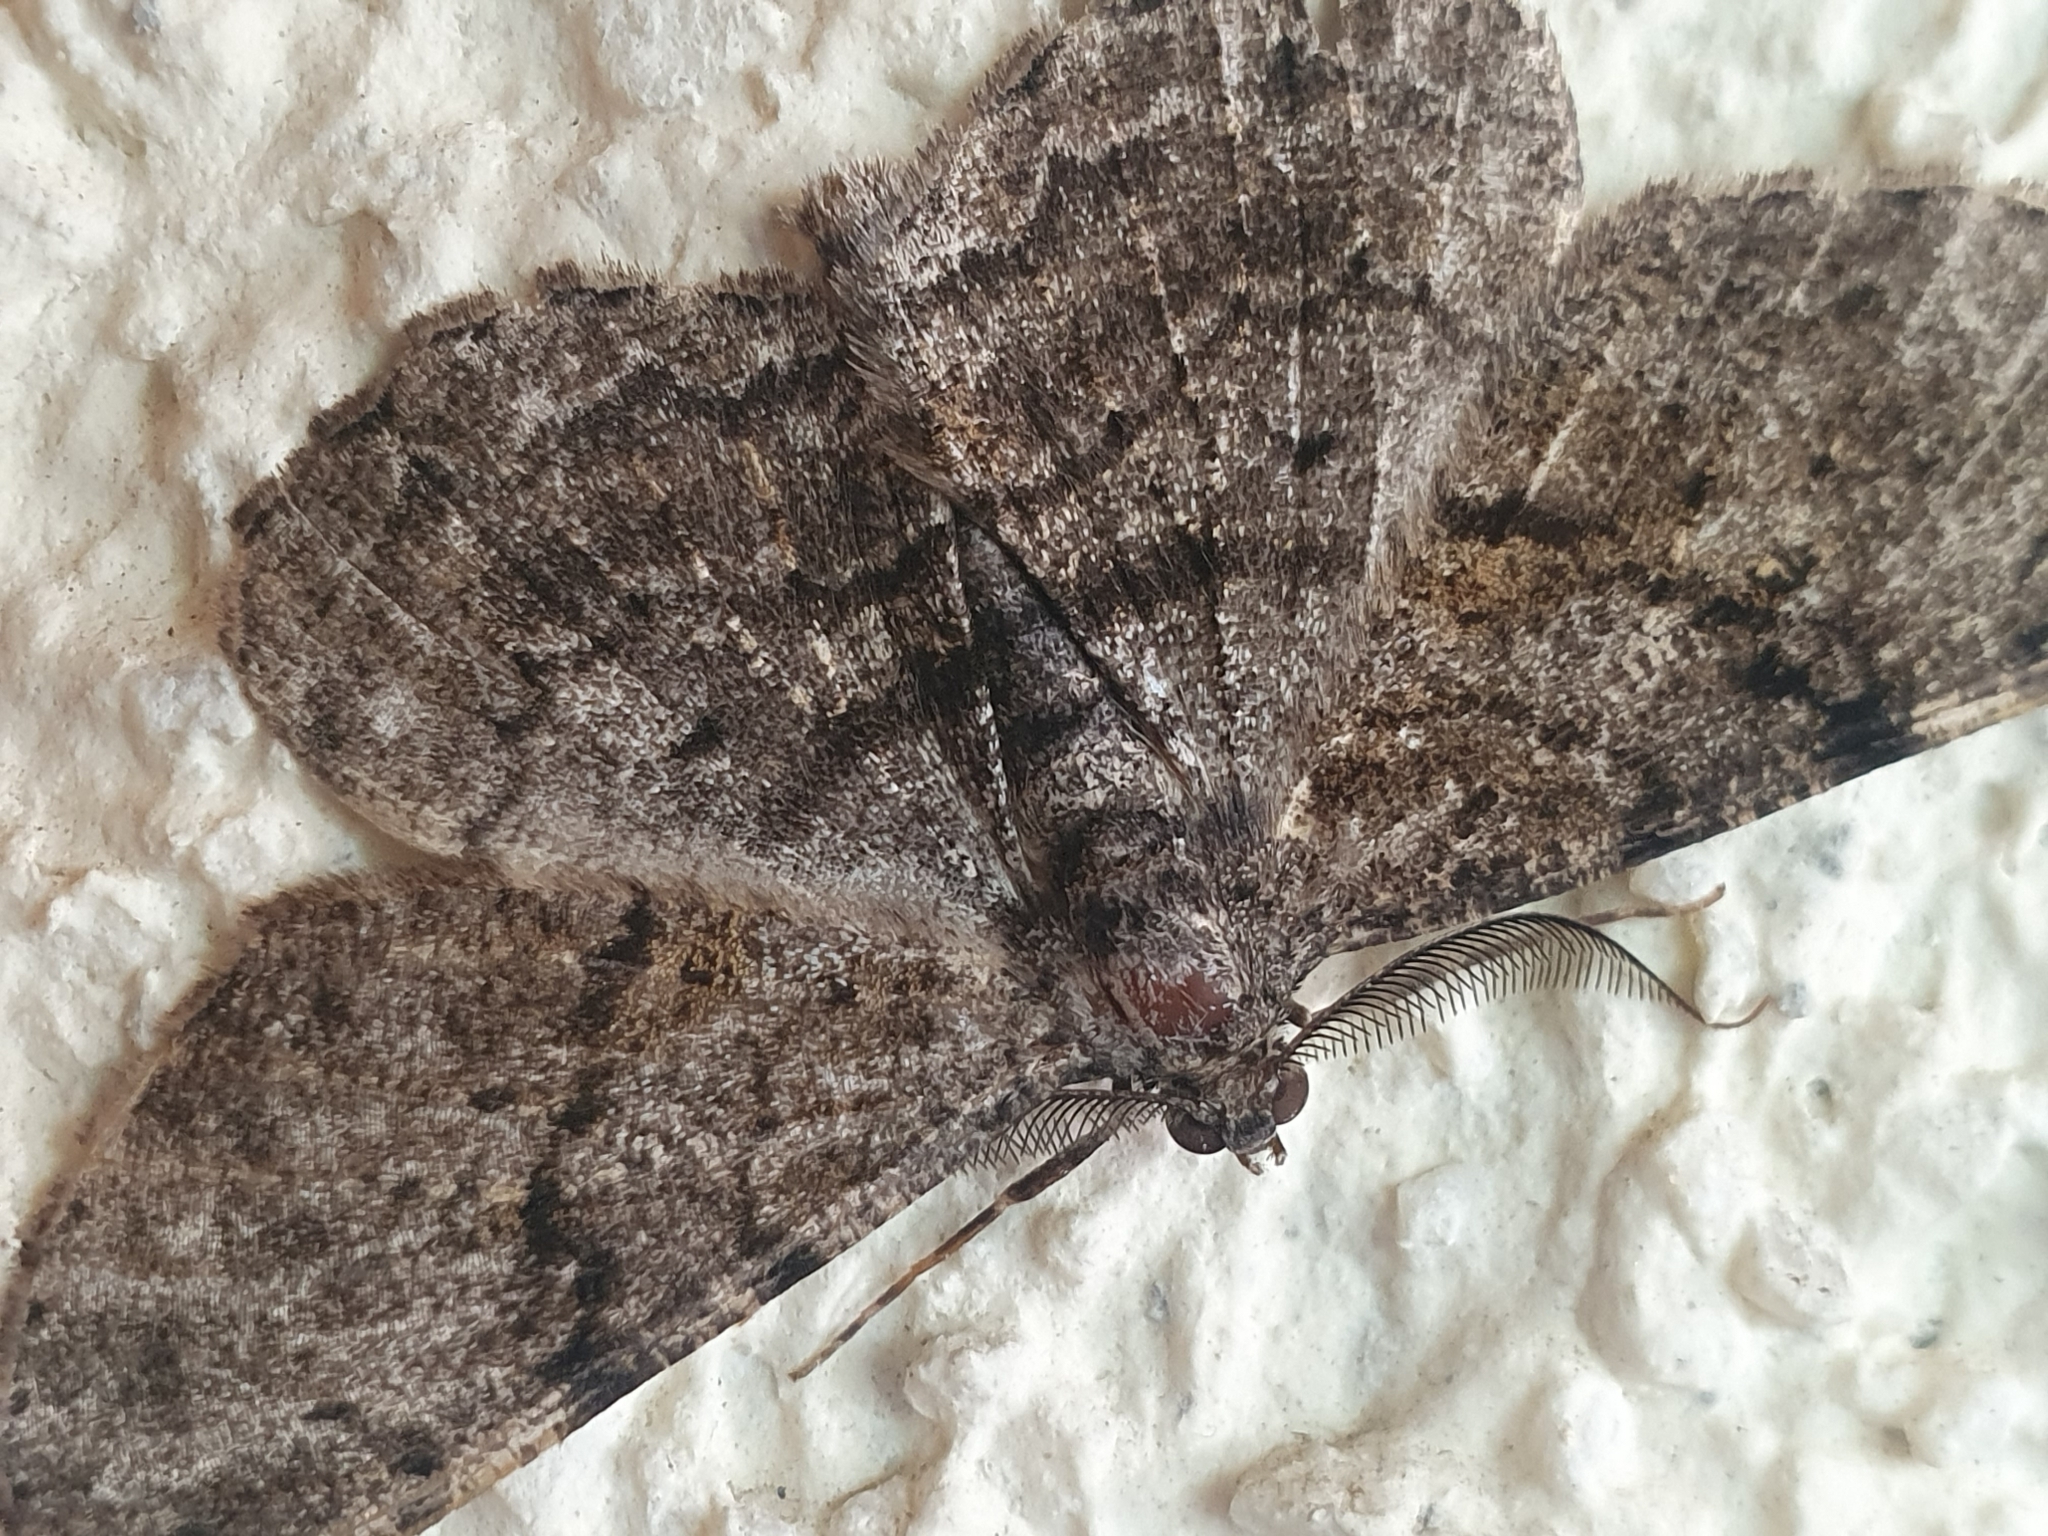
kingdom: Animalia
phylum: Arthropoda
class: Insecta
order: Lepidoptera
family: Geometridae
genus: Peribatodes
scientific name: Peribatodes rhomboidaria
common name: Willow beauty
